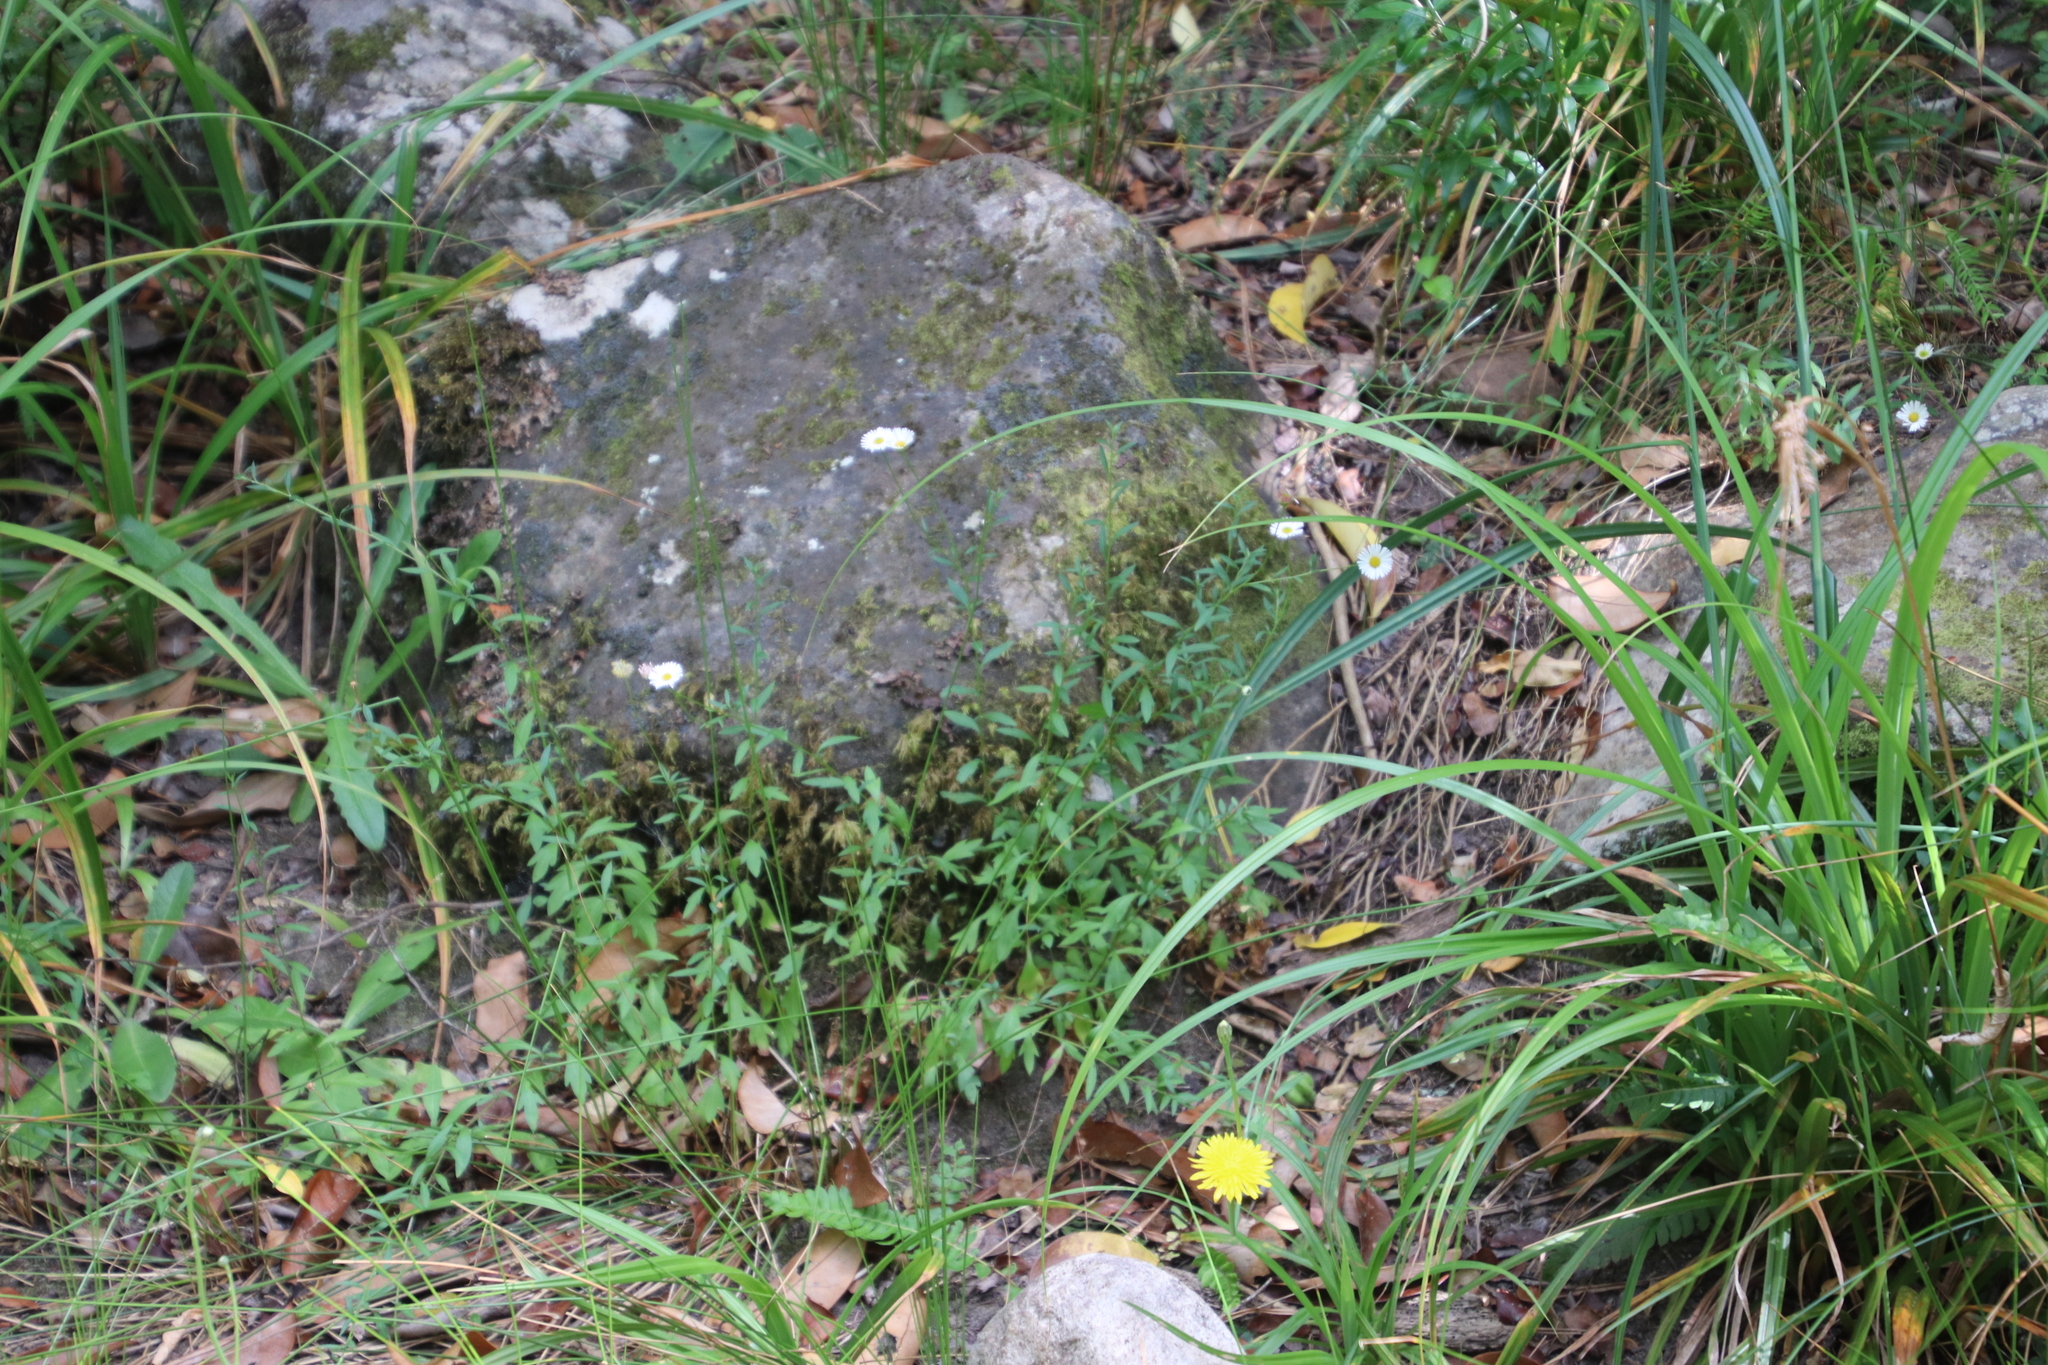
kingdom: Plantae
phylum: Tracheophyta
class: Magnoliopsida
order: Asterales
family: Asteraceae
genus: Erigeron
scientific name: Erigeron karvinskianus
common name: Mexican fleabane
